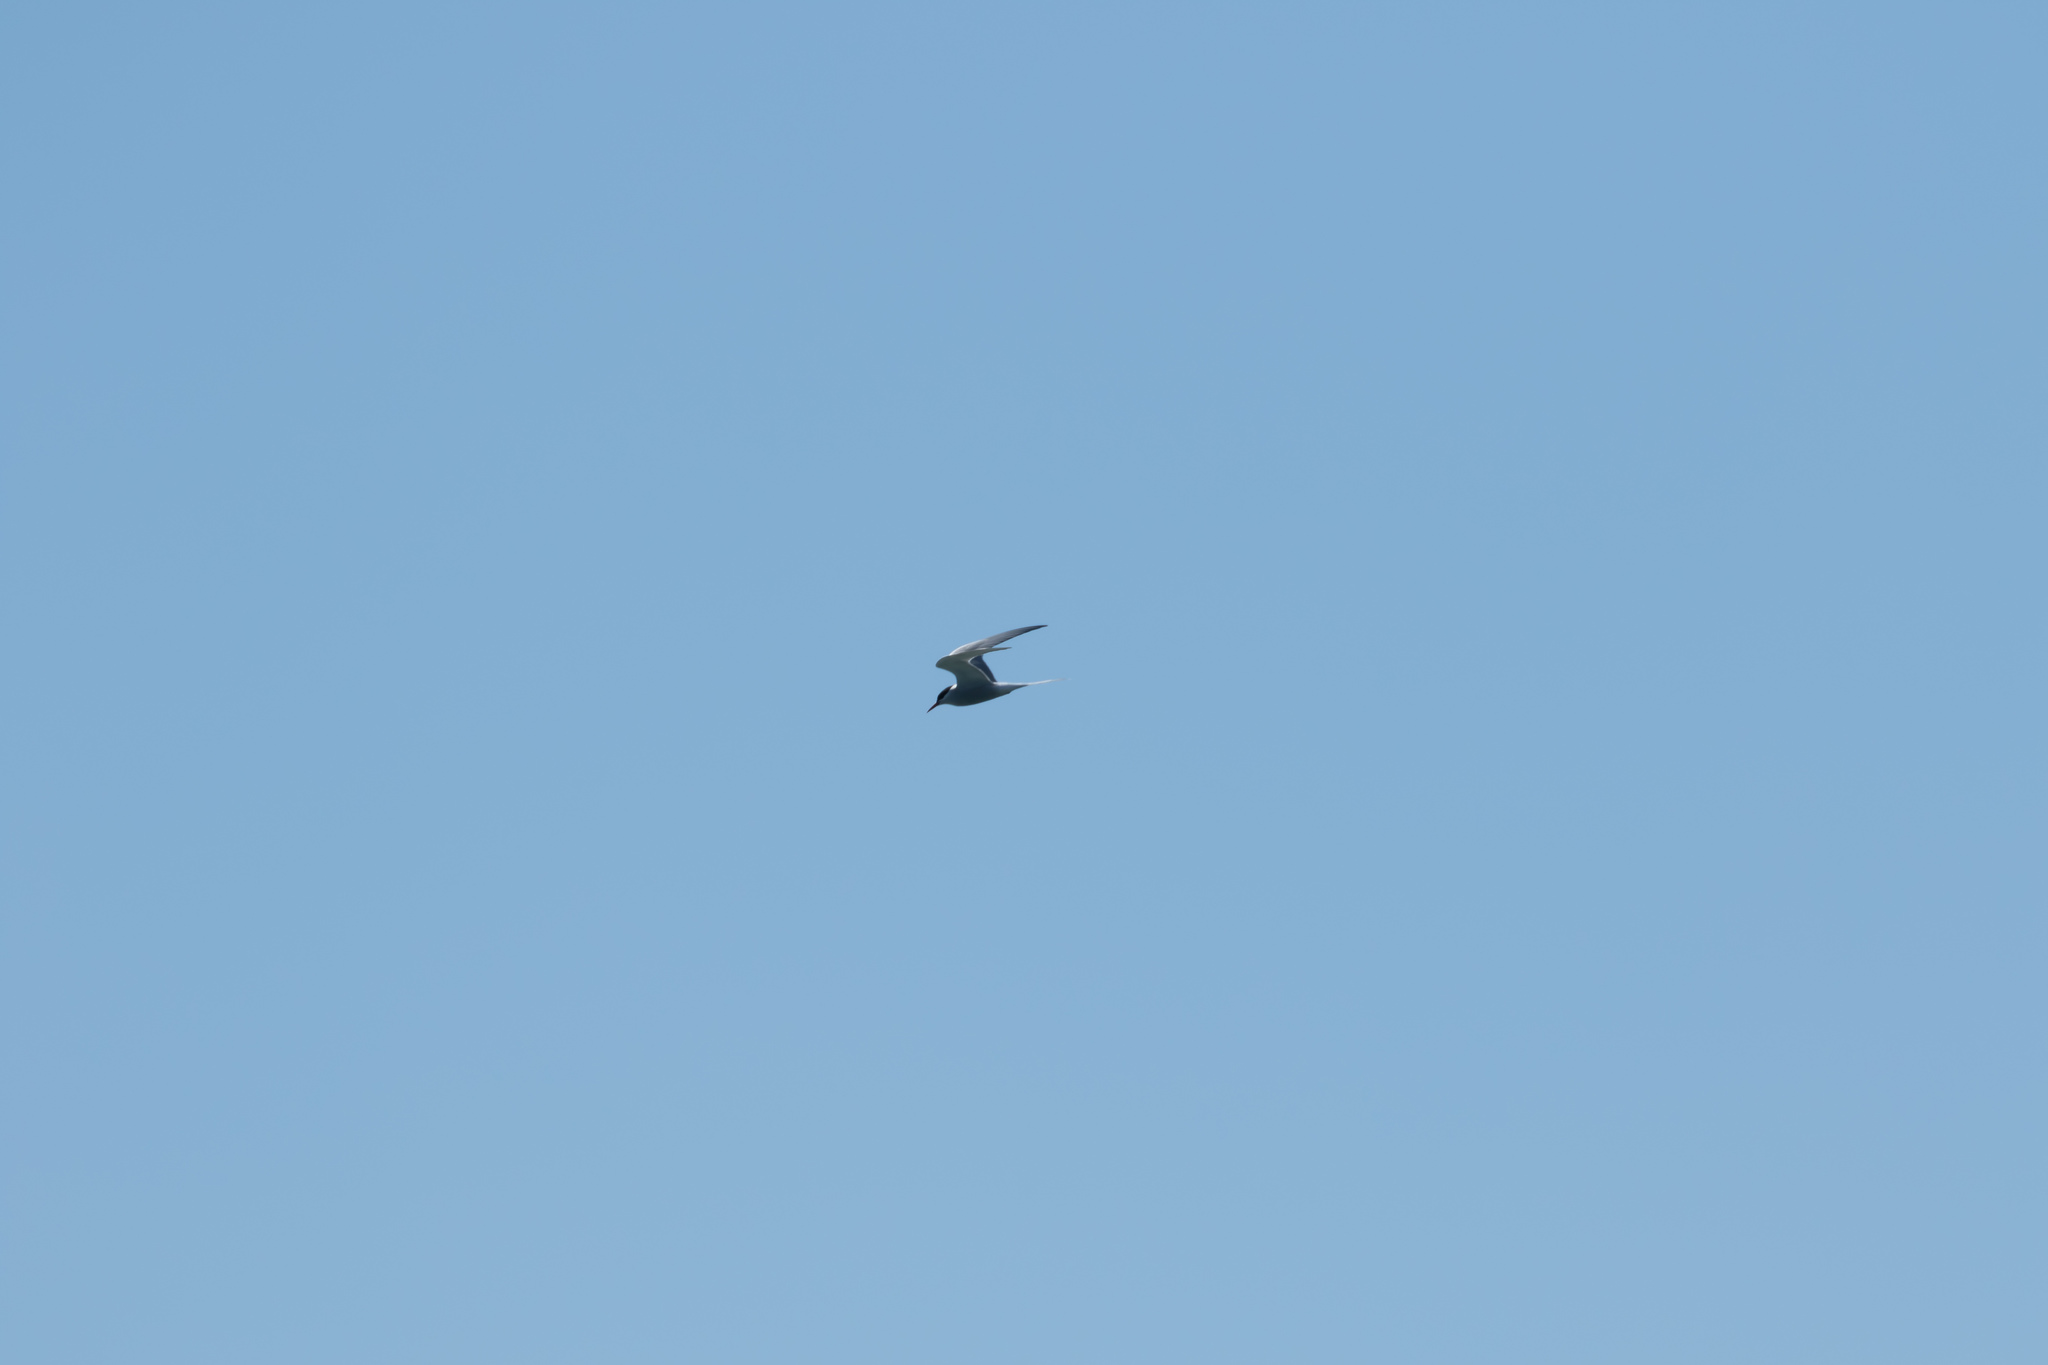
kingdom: Animalia
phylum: Chordata
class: Aves
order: Charadriiformes
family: Laridae
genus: Sterna
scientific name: Sterna paradisaea
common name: Arctic tern
